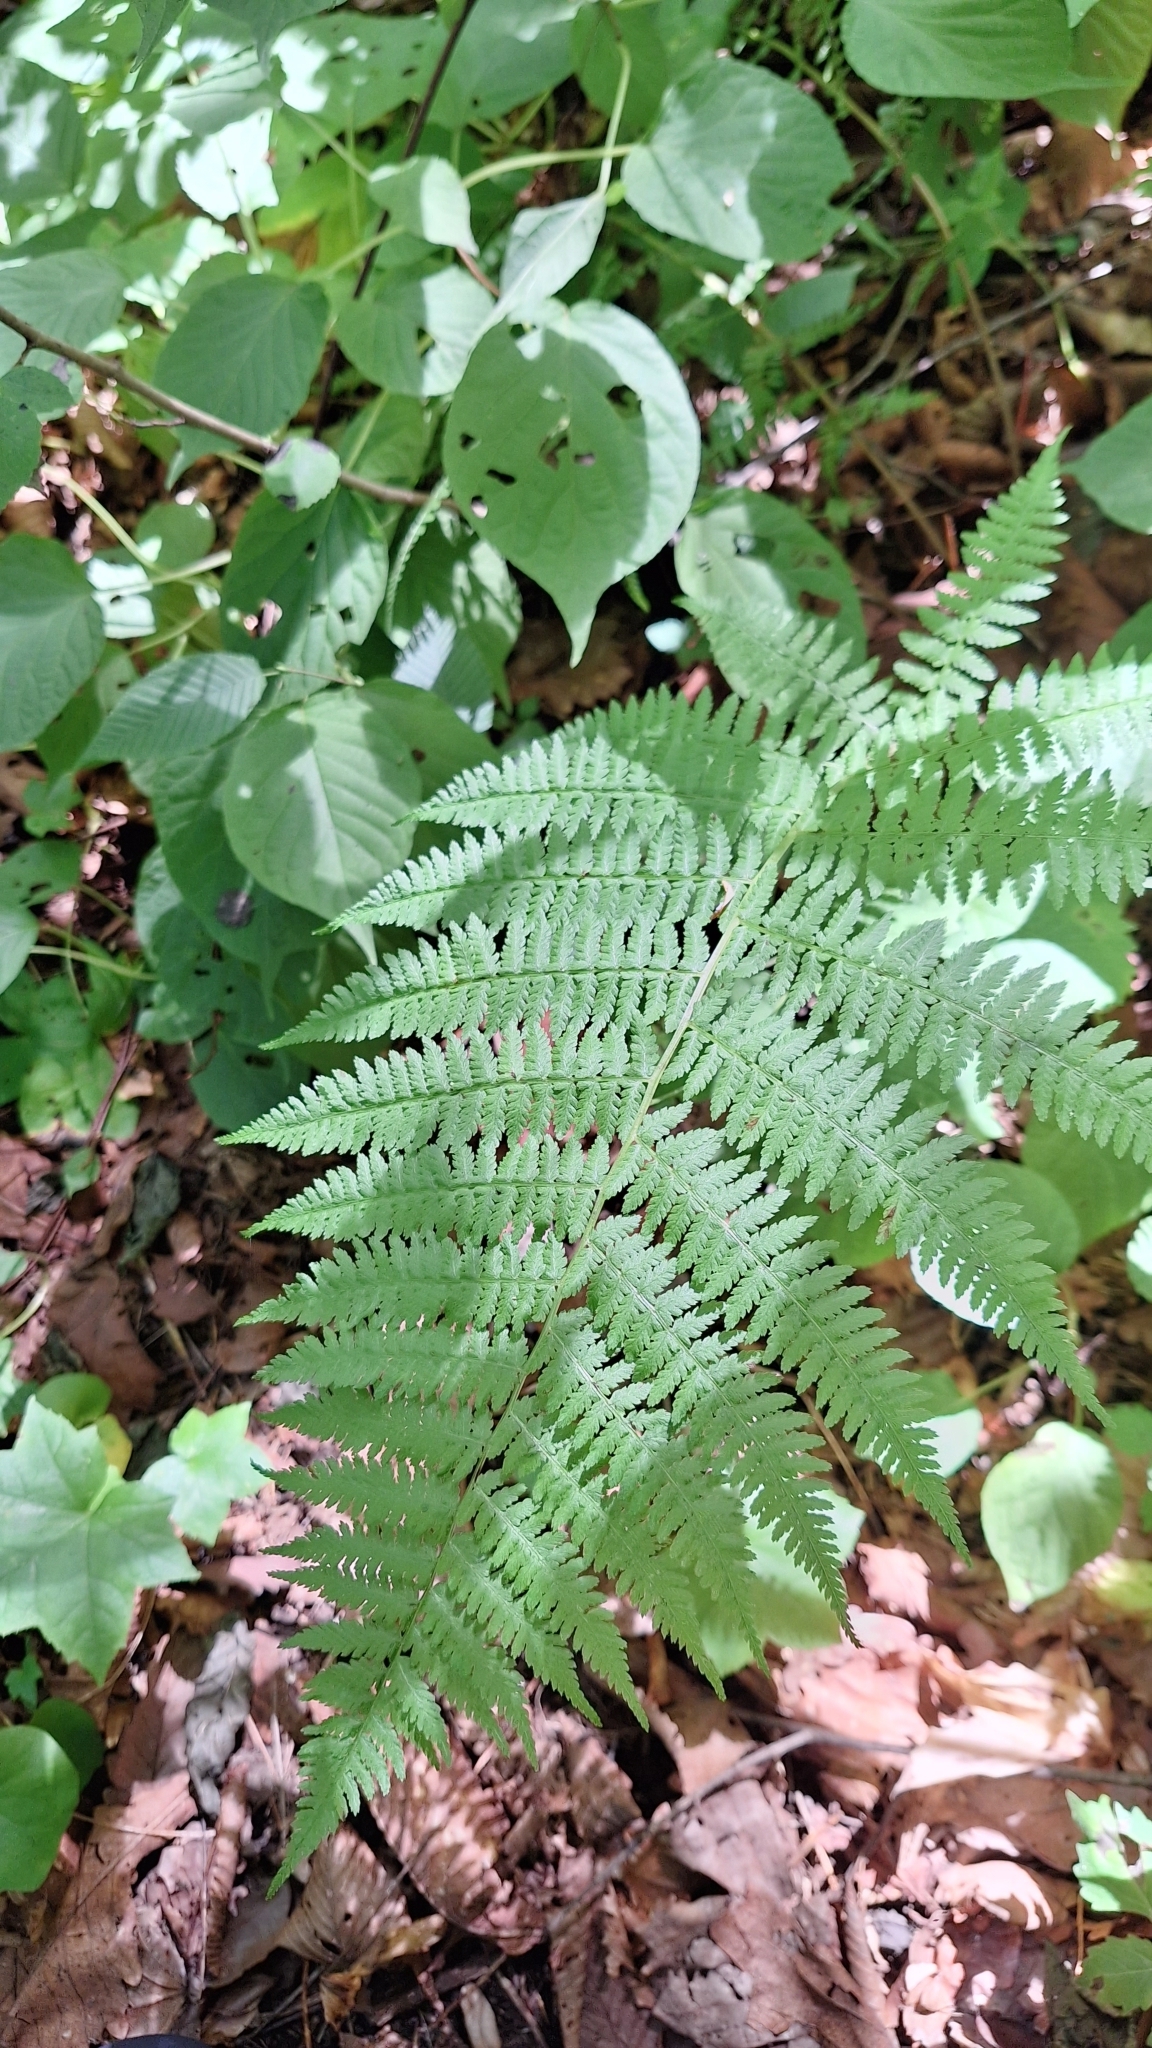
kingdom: Plantae
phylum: Tracheophyta
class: Polypodiopsida
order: Polypodiales
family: Athyriaceae
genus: Athyrium
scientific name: Athyrium sinense
